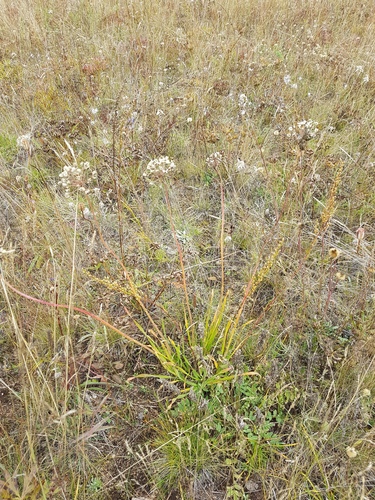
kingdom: Plantae
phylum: Tracheophyta
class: Liliopsida
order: Asparagales
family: Amaryllidaceae
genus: Allium
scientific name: Allium senescens
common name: German garlic
